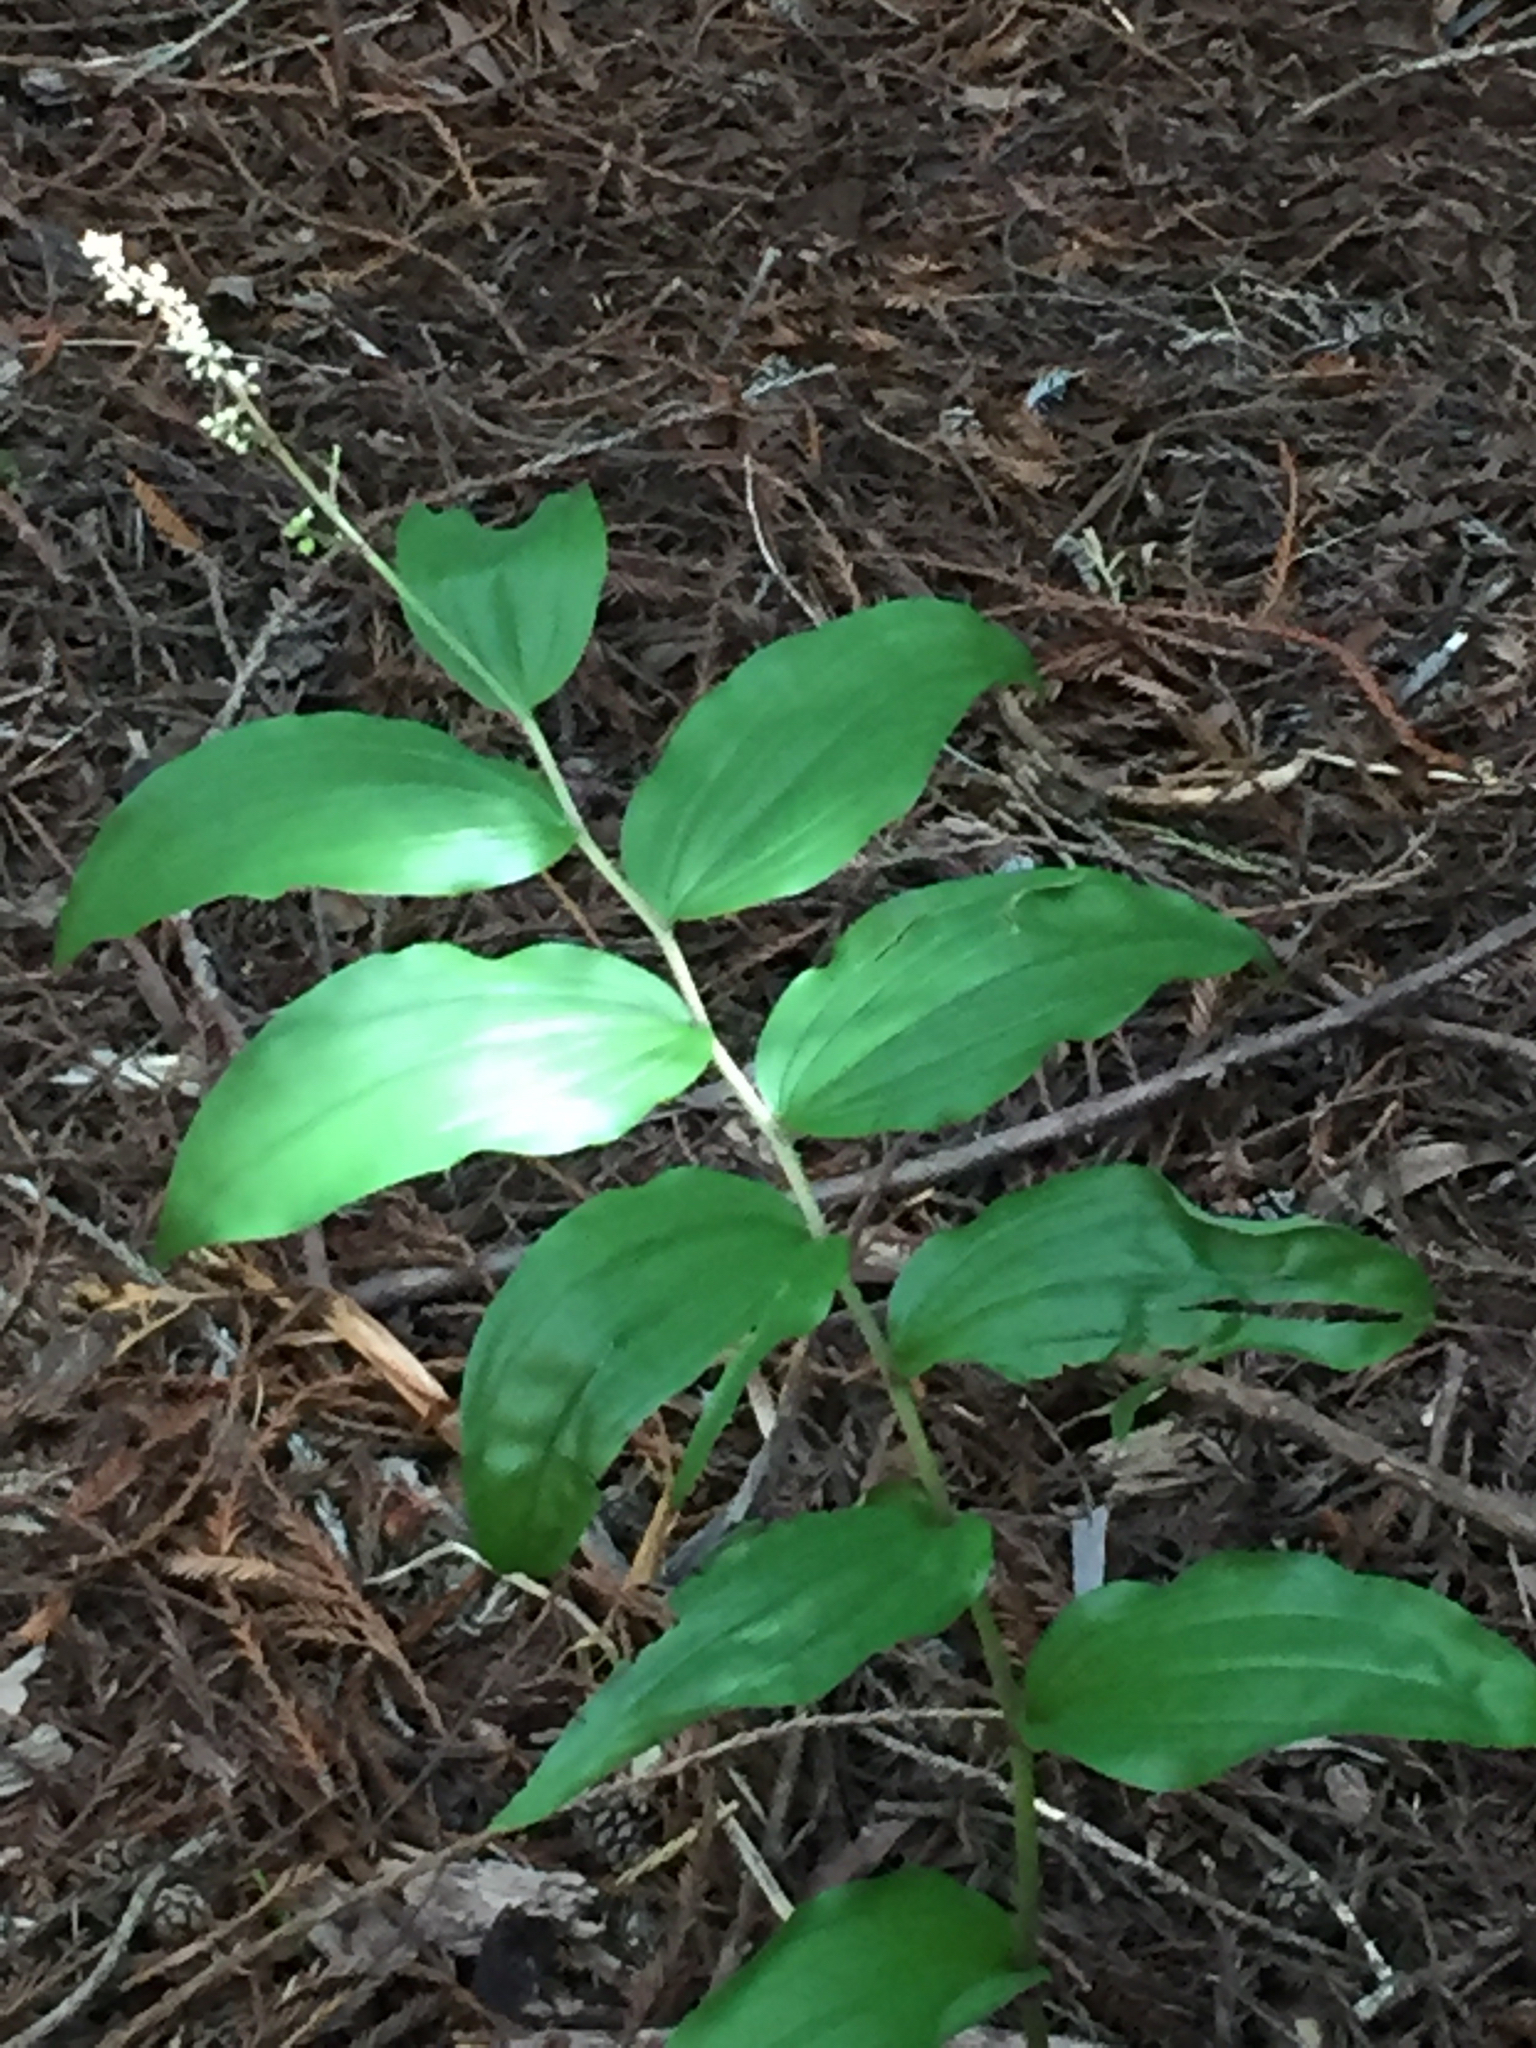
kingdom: Plantae
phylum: Tracheophyta
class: Liliopsida
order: Asparagales
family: Asparagaceae
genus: Maianthemum
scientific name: Maianthemum racemosum
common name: False spikenard
